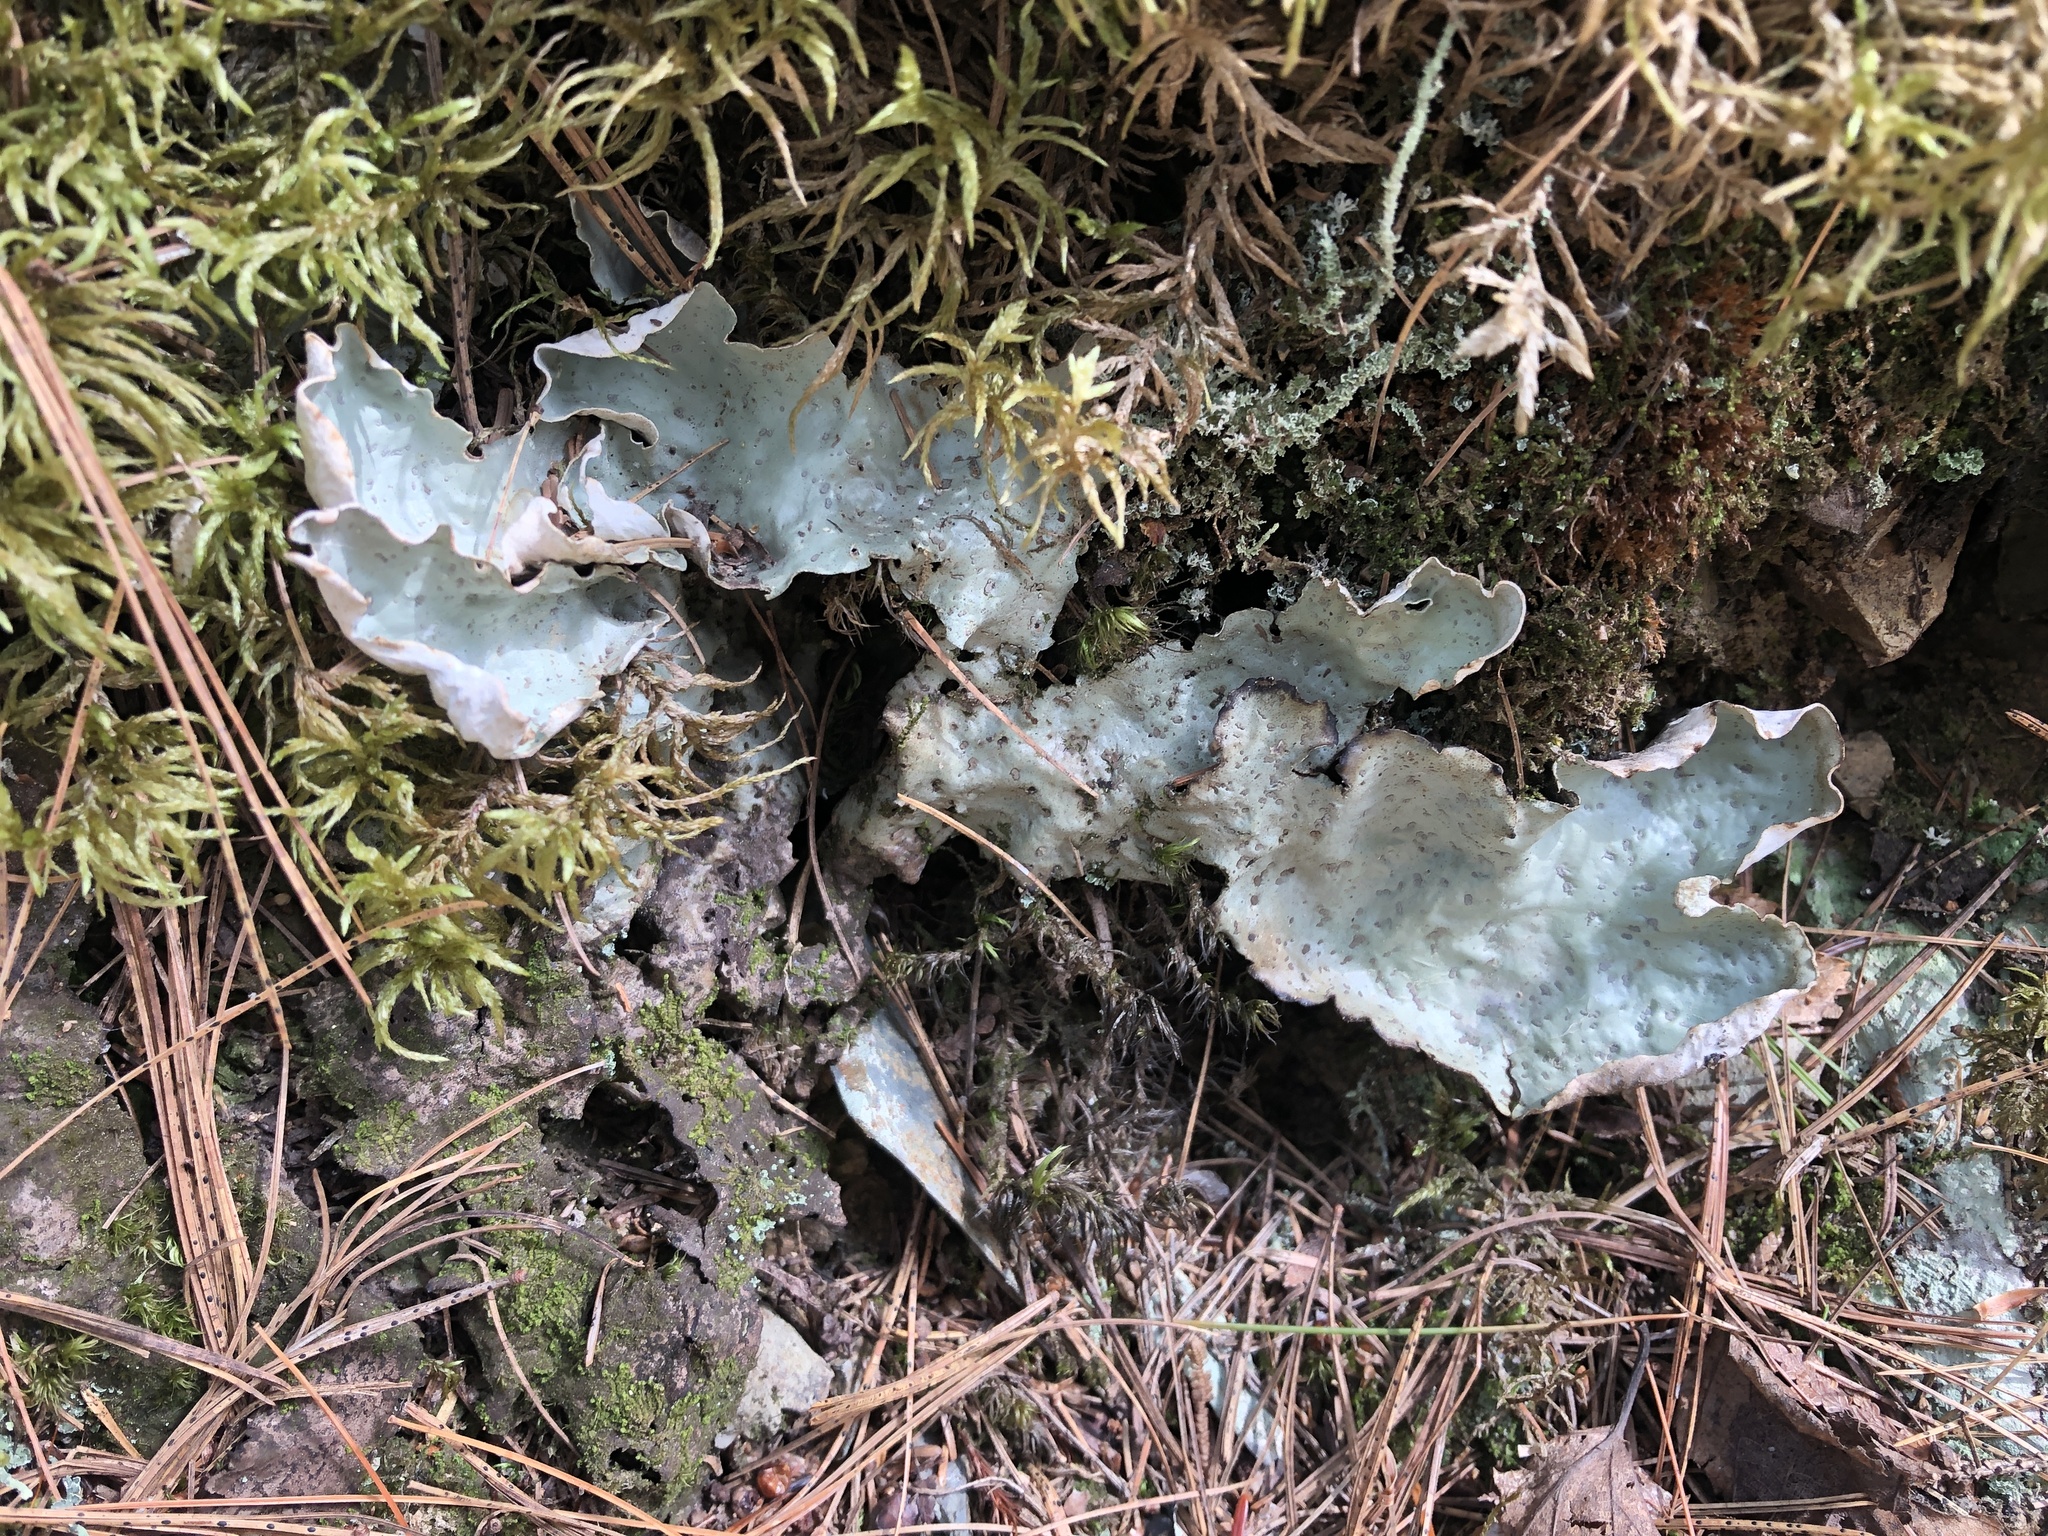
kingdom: Fungi
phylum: Ascomycota
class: Lecanoromycetes
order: Peltigerales
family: Peltigeraceae
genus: Peltigera
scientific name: Peltigera aphthosa
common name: Common freckle pelt lichen
